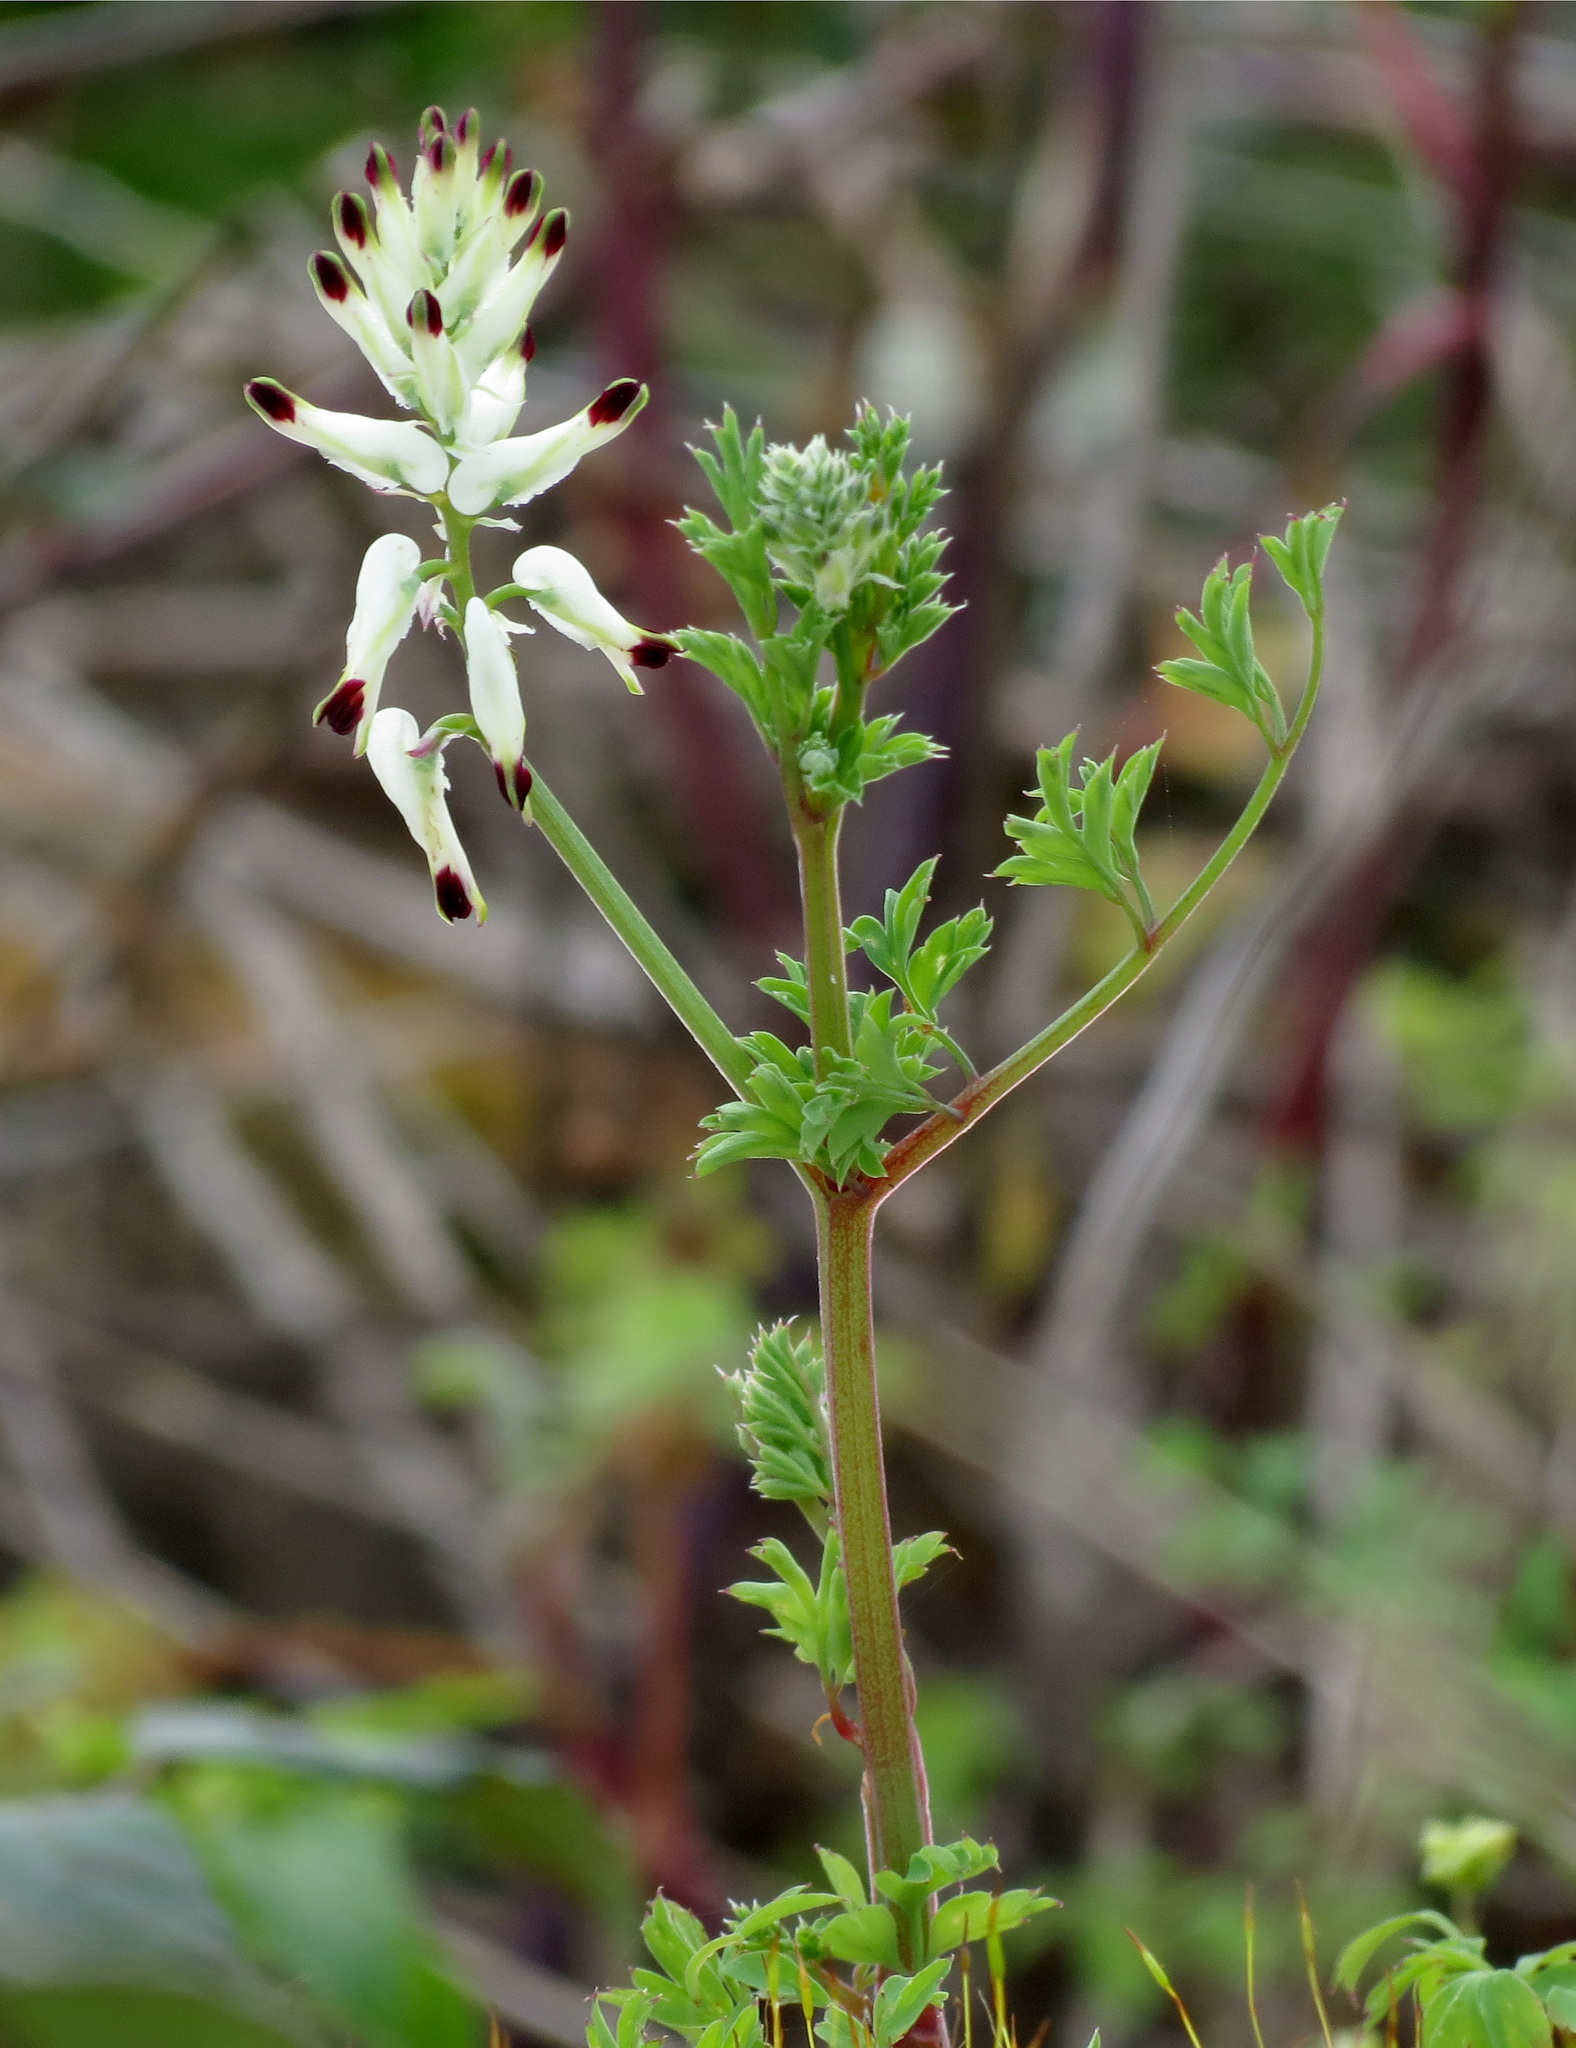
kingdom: Plantae
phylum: Tracheophyta
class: Magnoliopsida
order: Ranunculales
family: Papaveraceae
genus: Fumaria
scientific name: Fumaria capreolata
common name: White ramping-fumitory
